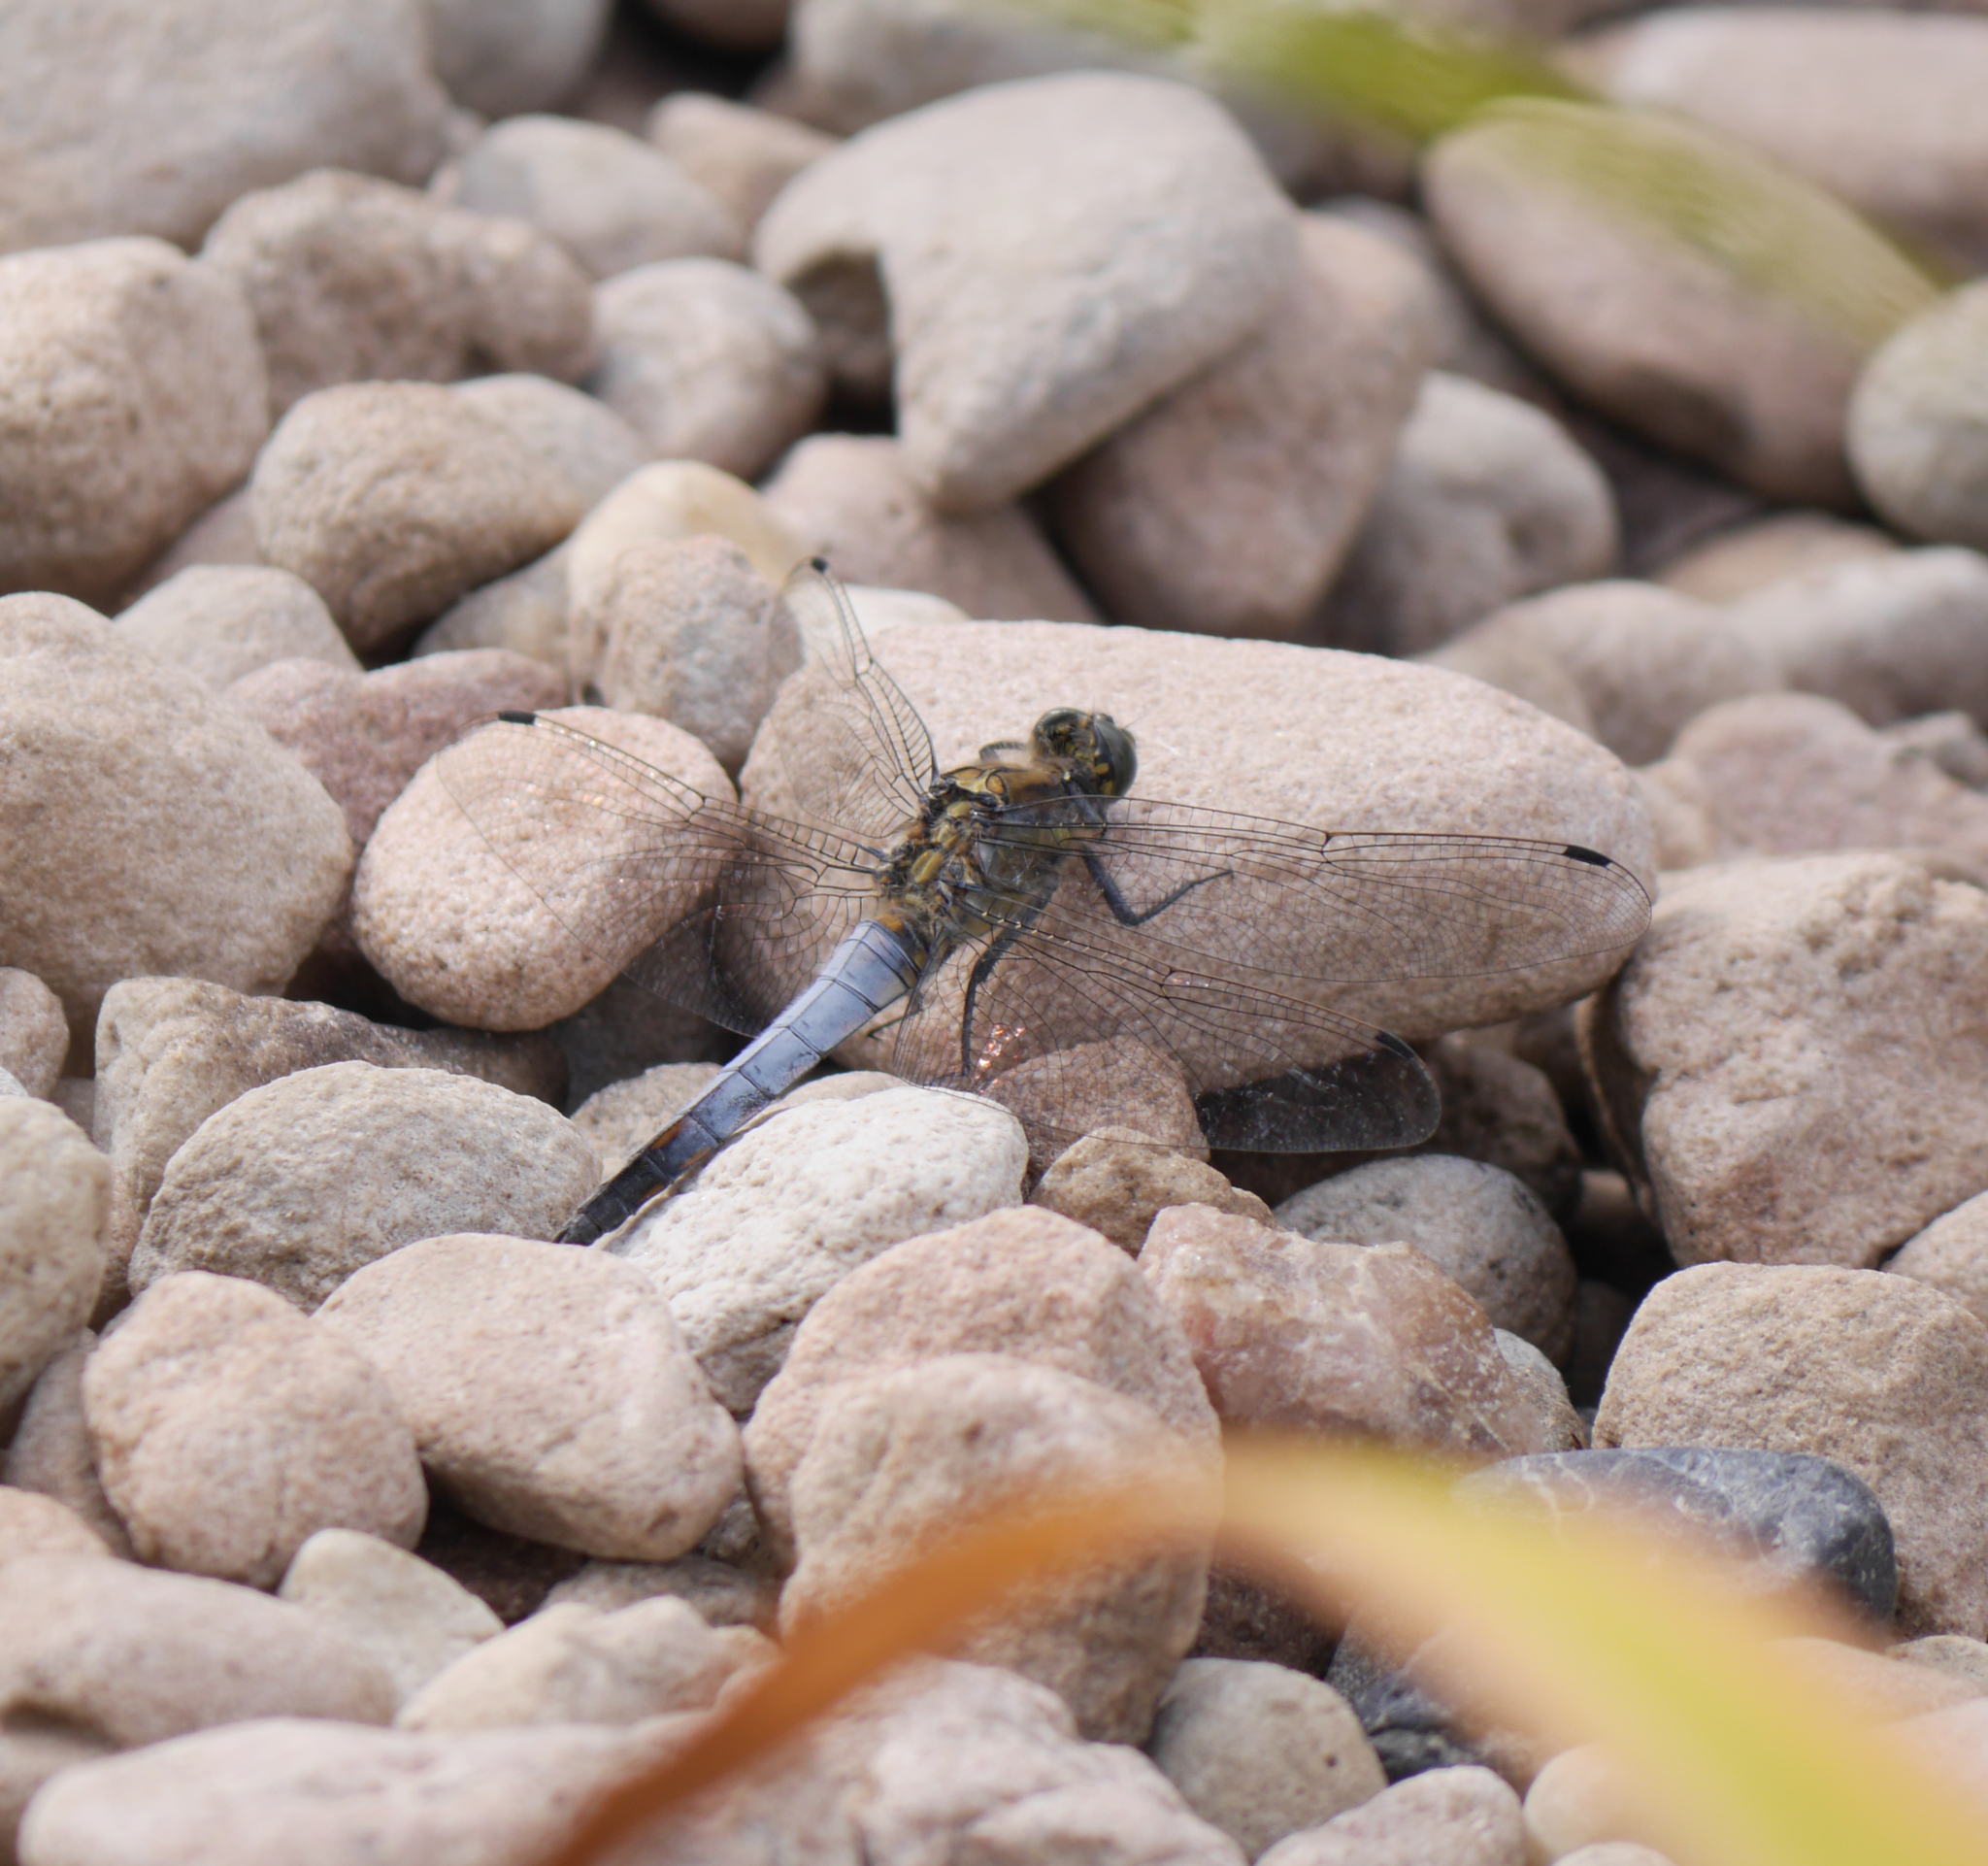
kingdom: Animalia
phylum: Arthropoda
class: Insecta
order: Odonata
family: Libellulidae
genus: Orthetrum
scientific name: Orthetrum cancellatum
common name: Black-tailed skimmer
